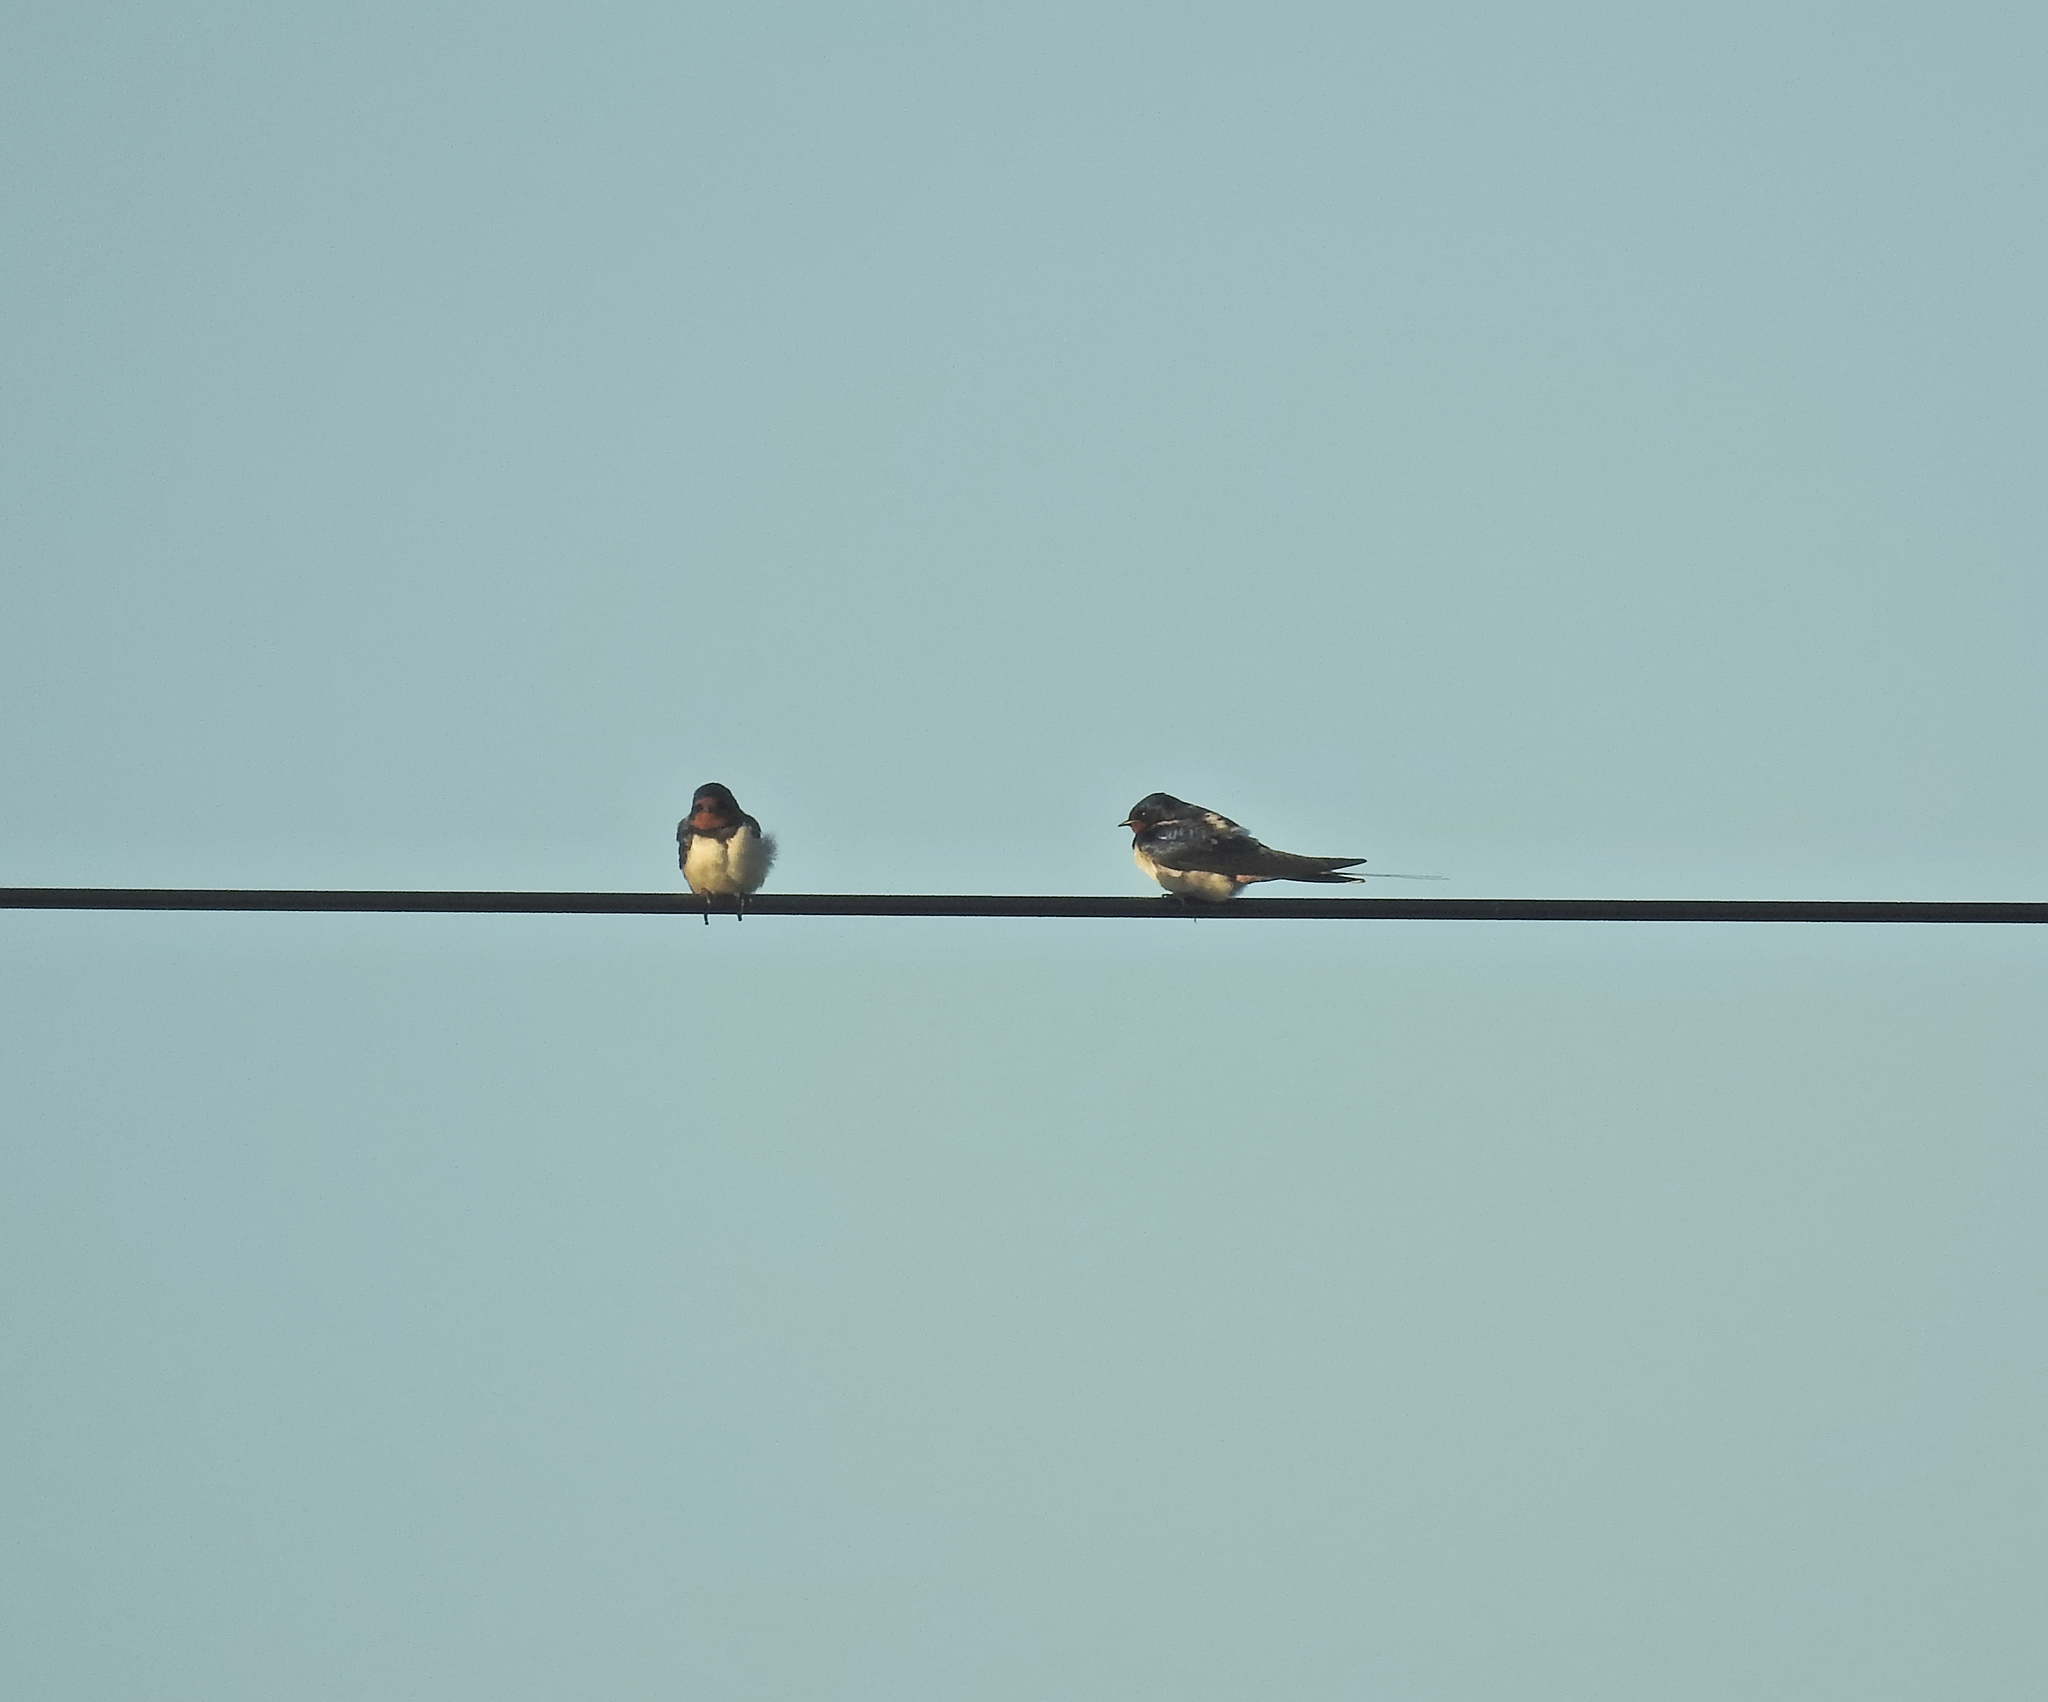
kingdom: Animalia
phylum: Chordata
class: Aves
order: Passeriformes
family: Hirundinidae
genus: Hirundo
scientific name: Hirundo rustica
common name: Barn swallow
